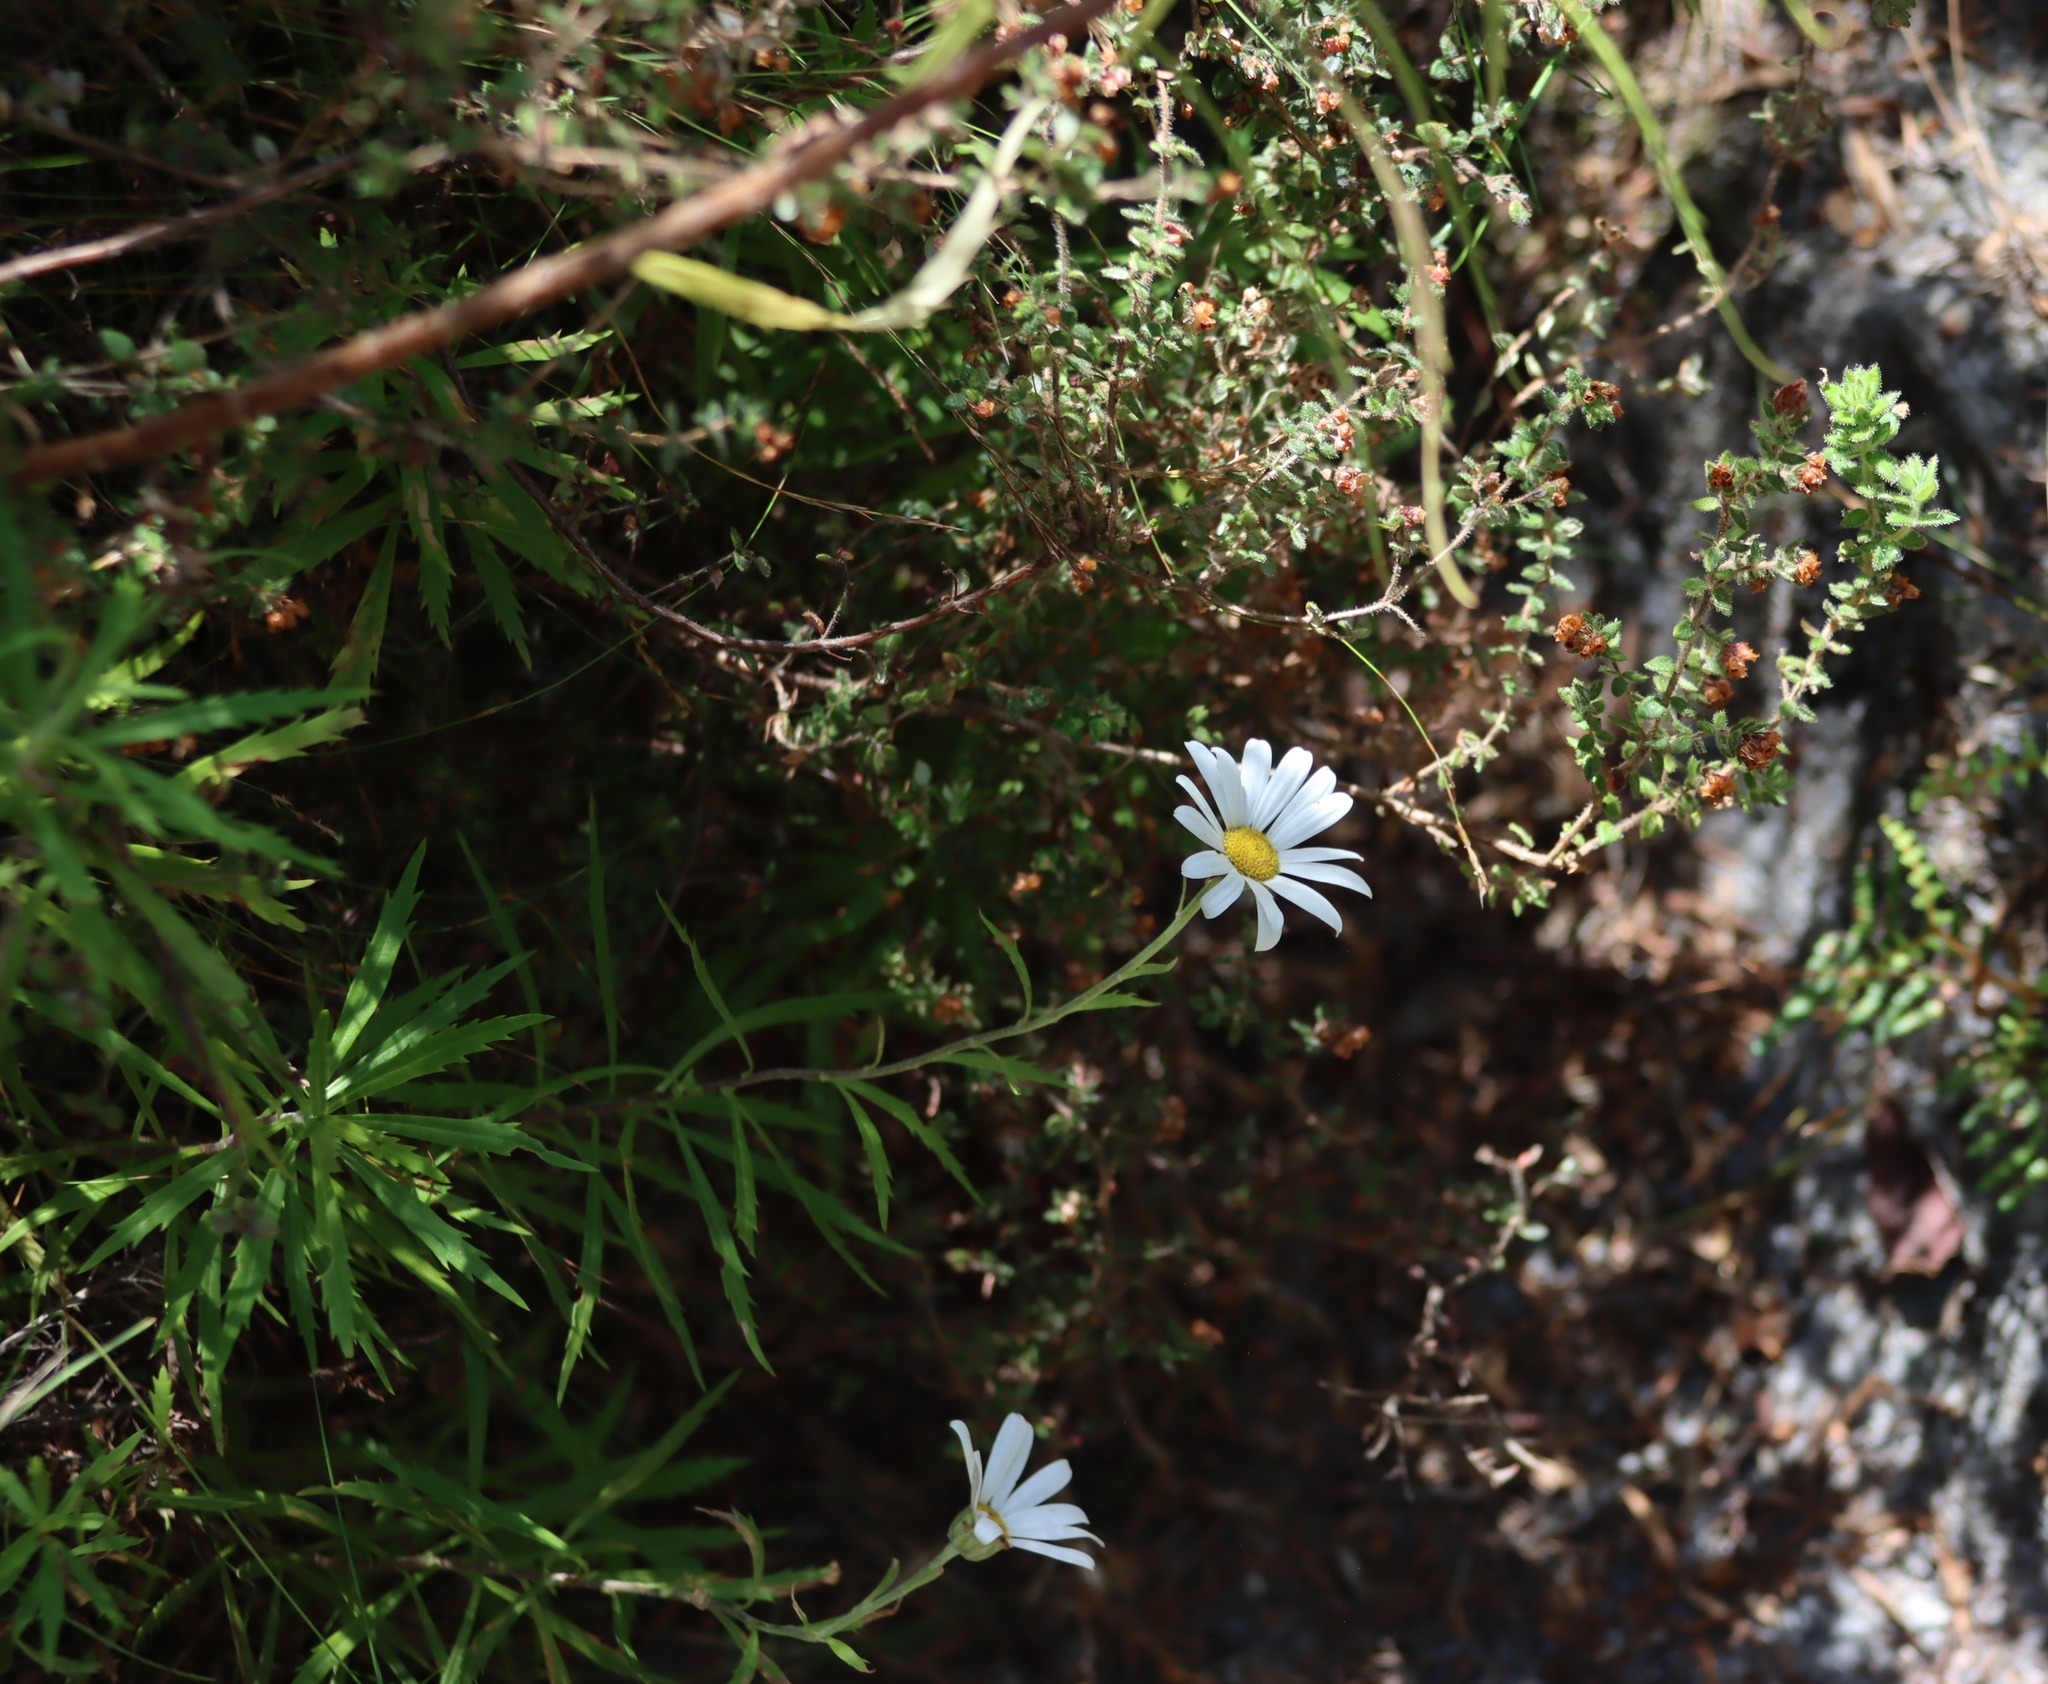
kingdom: Plantae
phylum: Tracheophyta
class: Magnoliopsida
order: Asterales
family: Asteraceae
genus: Osmitopsis
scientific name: Osmitopsis osmitoides
